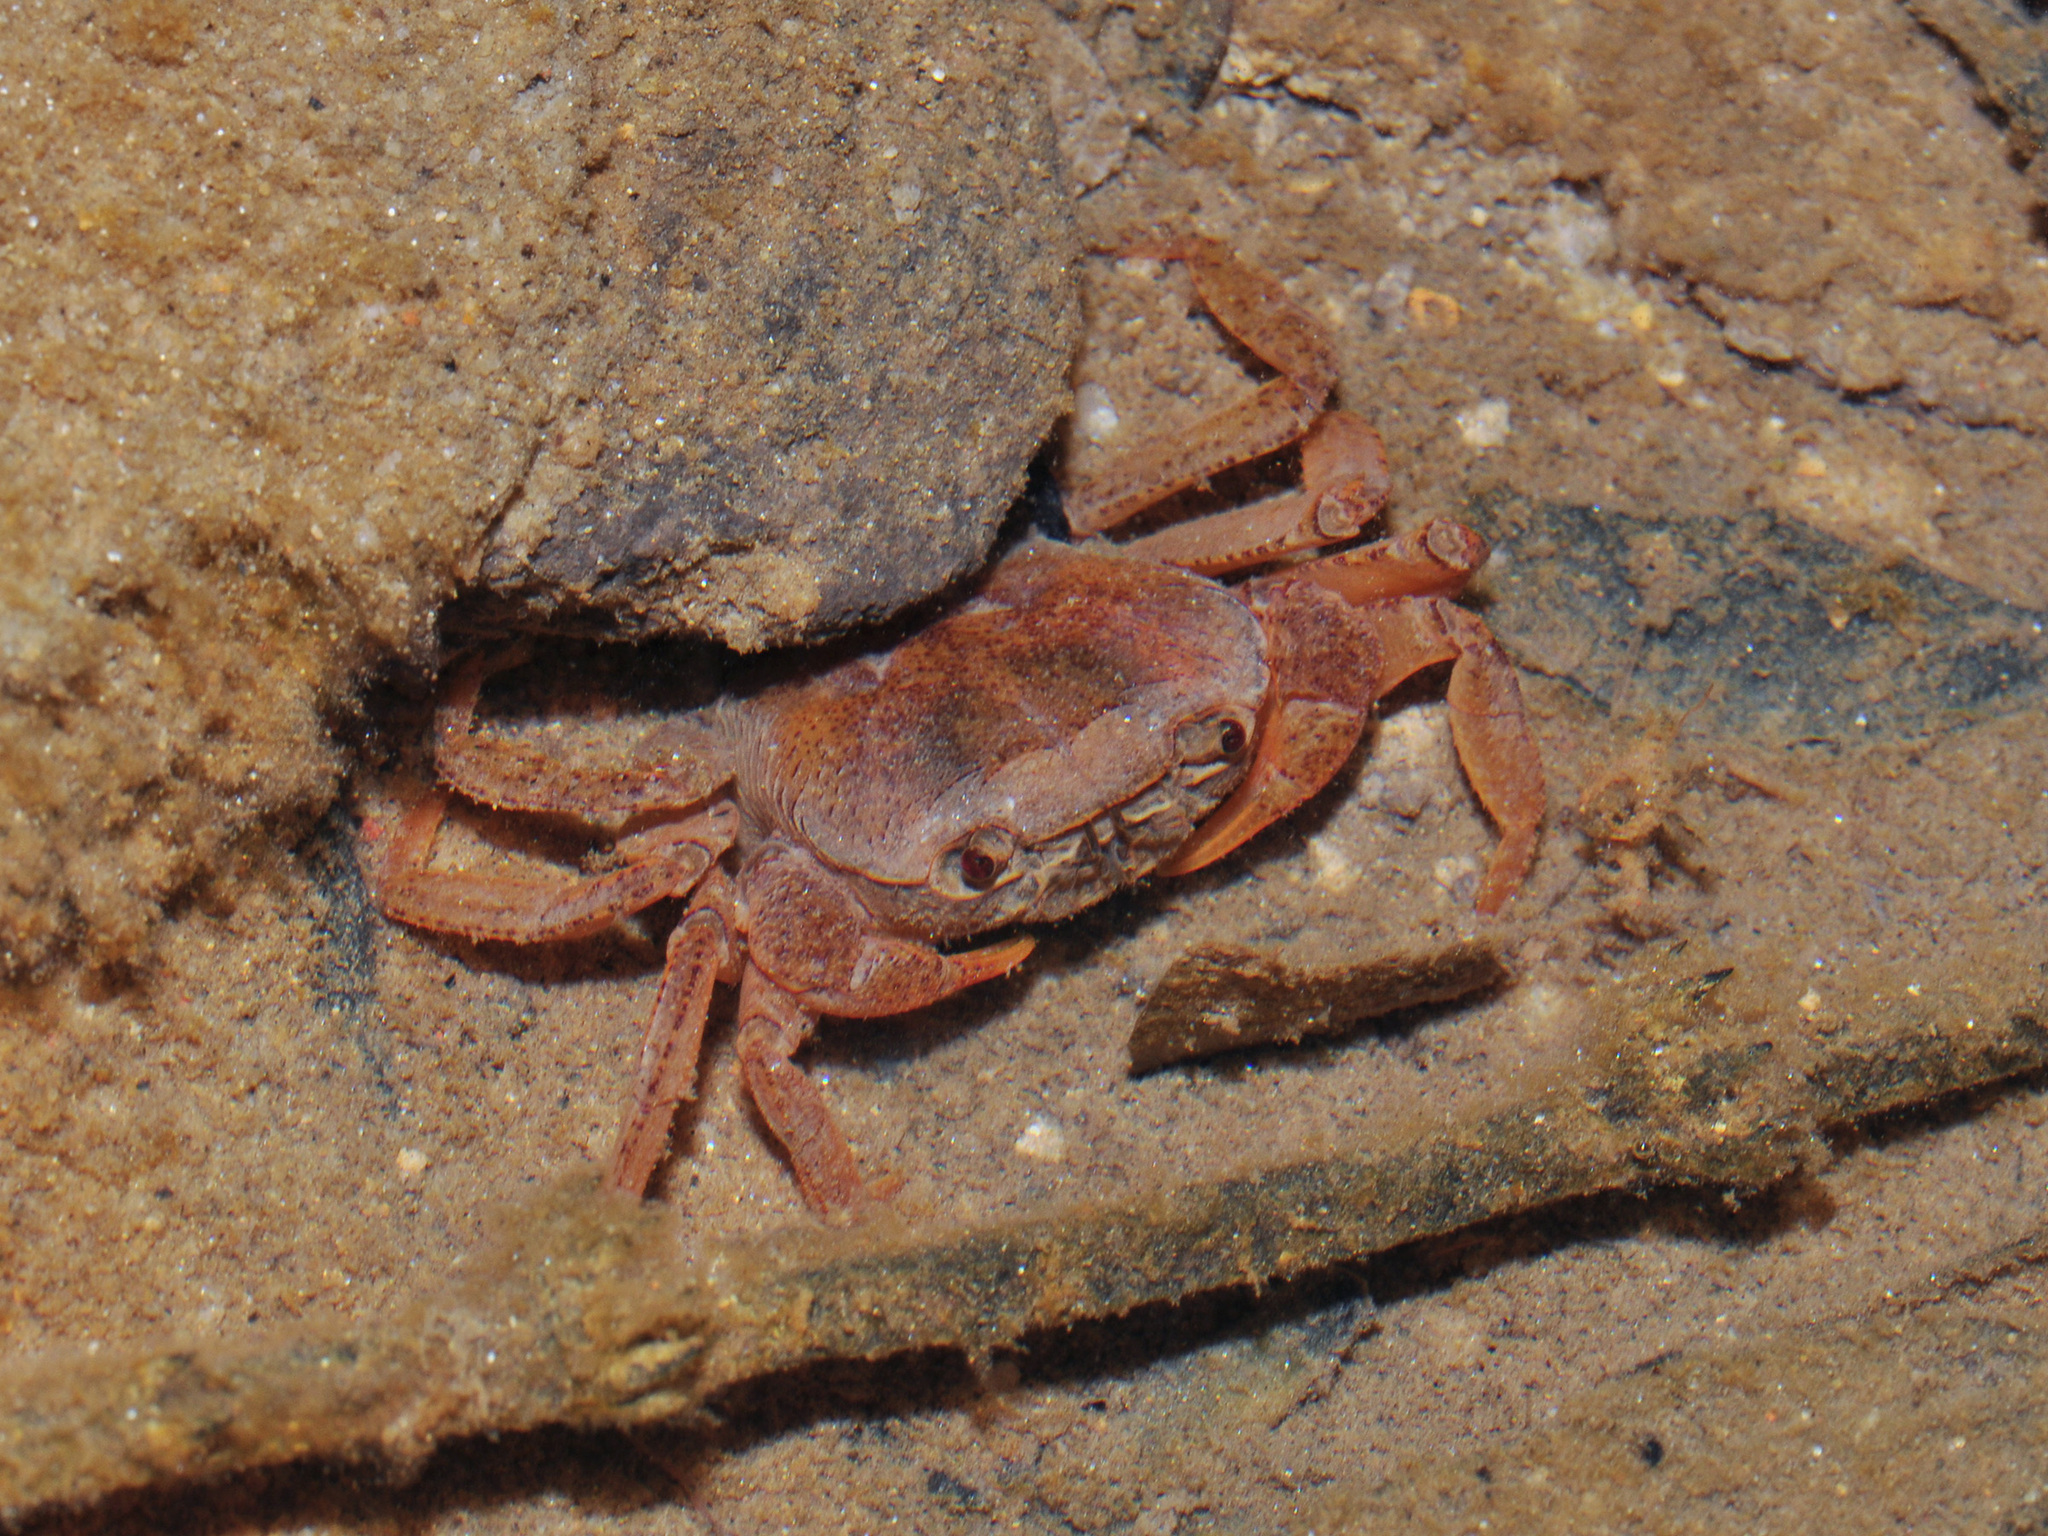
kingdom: Animalia
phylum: Arthropoda
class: Malacostraca
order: Decapoda
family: Gecarcinucidae
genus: Irmengardia
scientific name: Irmengardia johnsoni
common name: Johnson's freshwater crab
